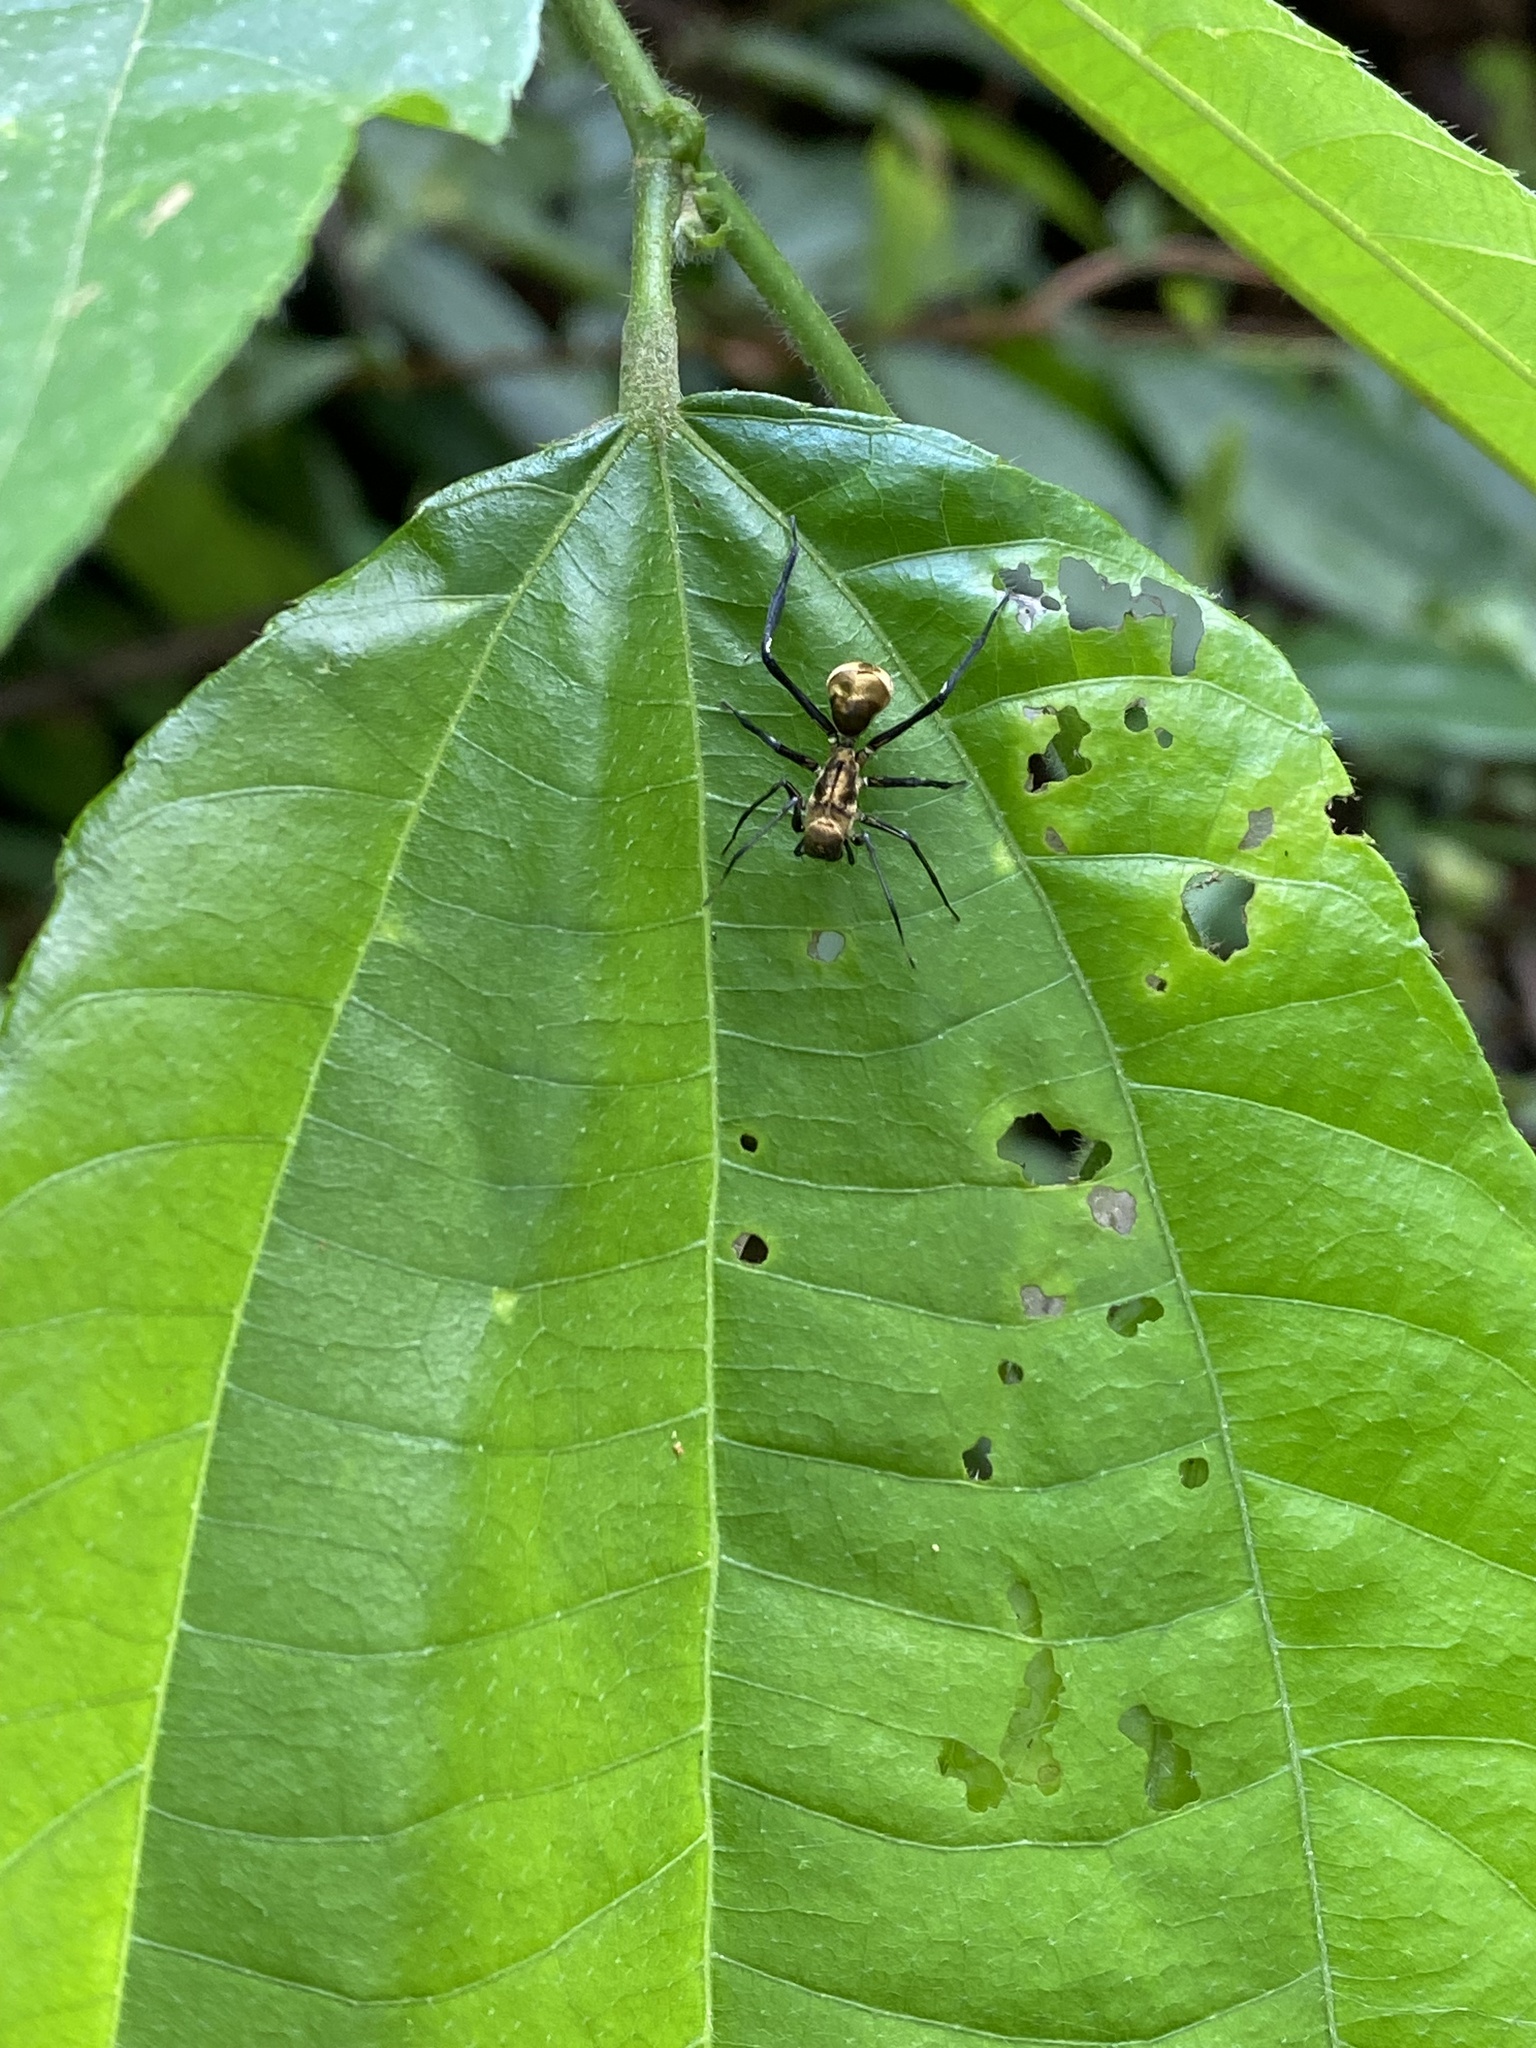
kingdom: Animalia
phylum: Arthropoda
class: Arachnida
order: Araneae
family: Corinnidae
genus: Myrmecotypus
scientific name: Myrmecotypus rettenmeyeri
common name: Corinnid sac spiders
